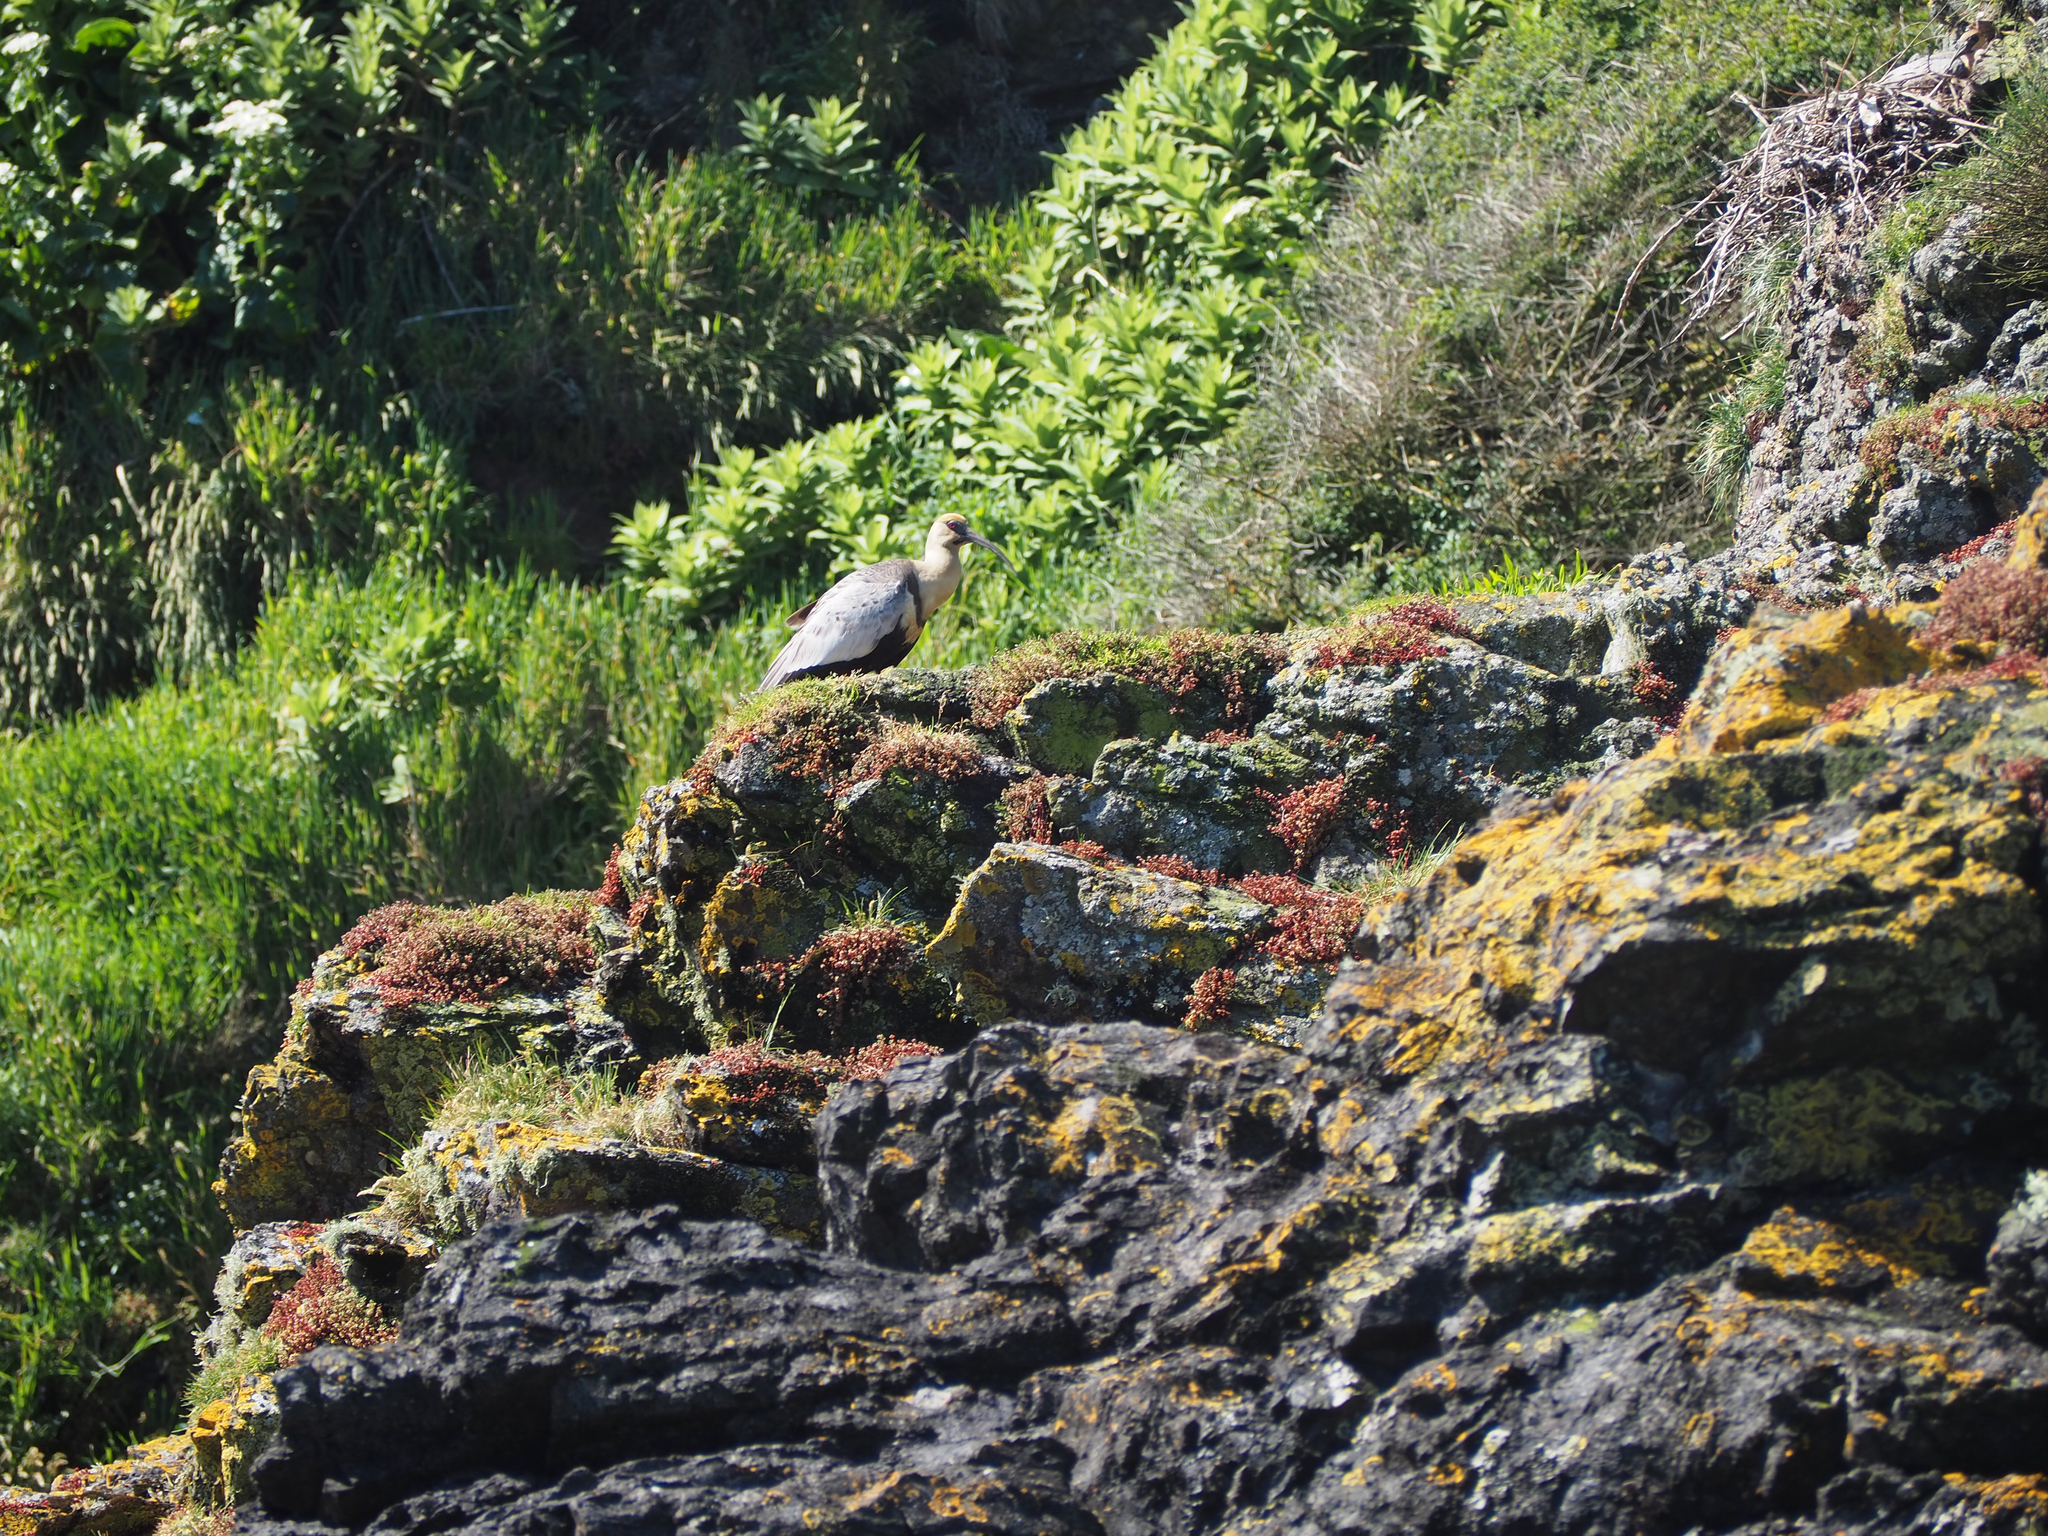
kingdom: Animalia
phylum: Chordata
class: Aves
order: Pelecaniformes
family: Threskiornithidae
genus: Theristicus
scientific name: Theristicus melanopis
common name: Black-faced ibis
